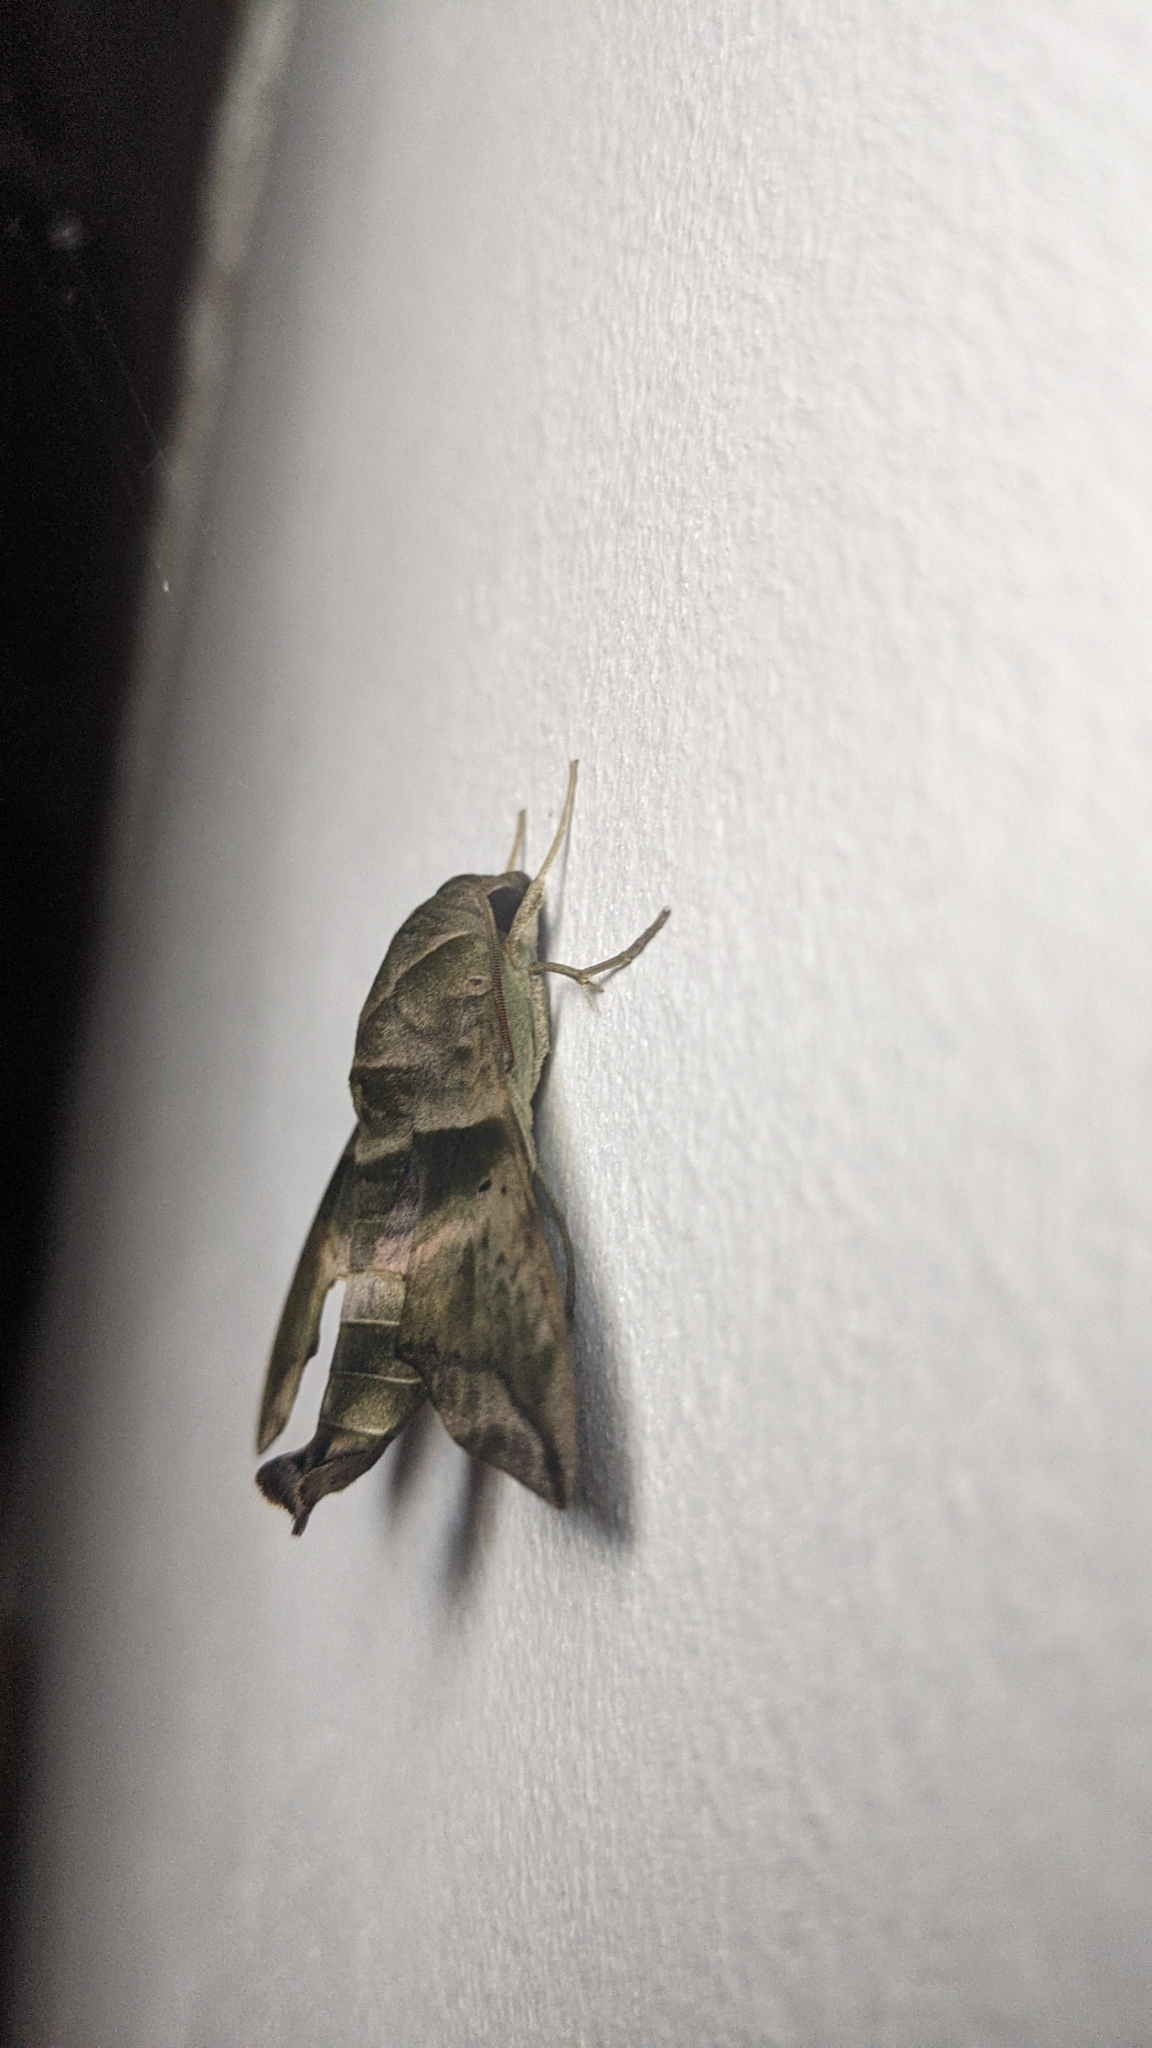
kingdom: Animalia
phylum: Arthropoda
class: Insecta
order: Lepidoptera
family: Sphingidae
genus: Perigonia
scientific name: Perigonia lusca
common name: Half-blind sphinx
